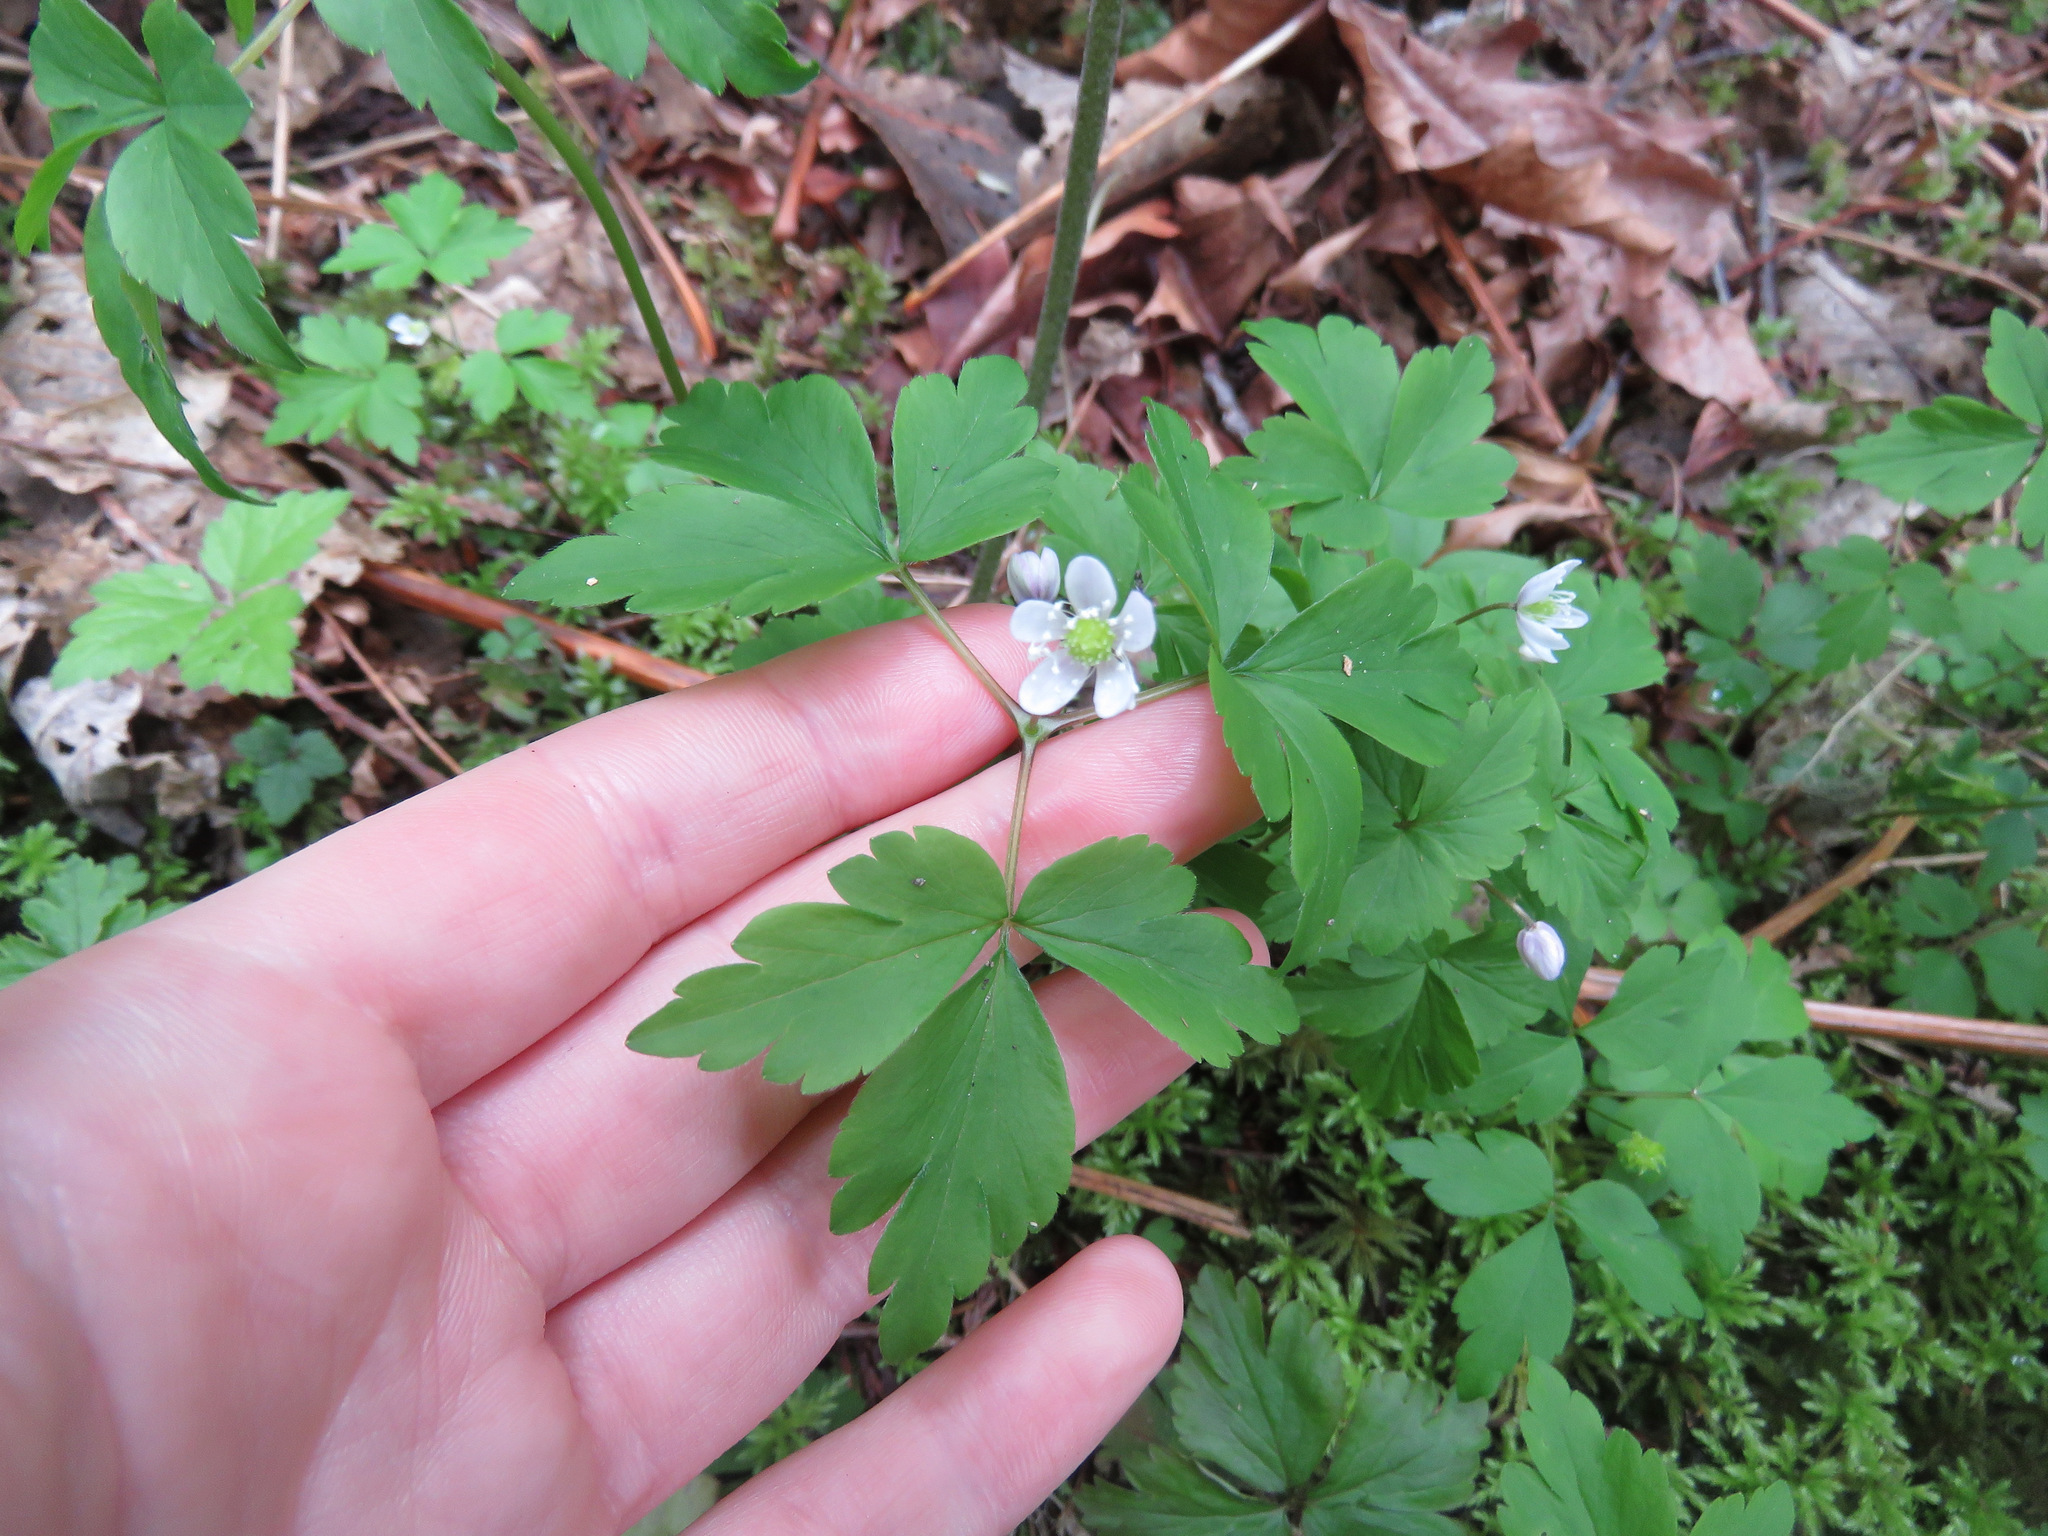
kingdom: Plantae
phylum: Tracheophyta
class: Magnoliopsida
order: Ranunculales
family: Ranunculaceae
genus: Anemone
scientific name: Anemone
